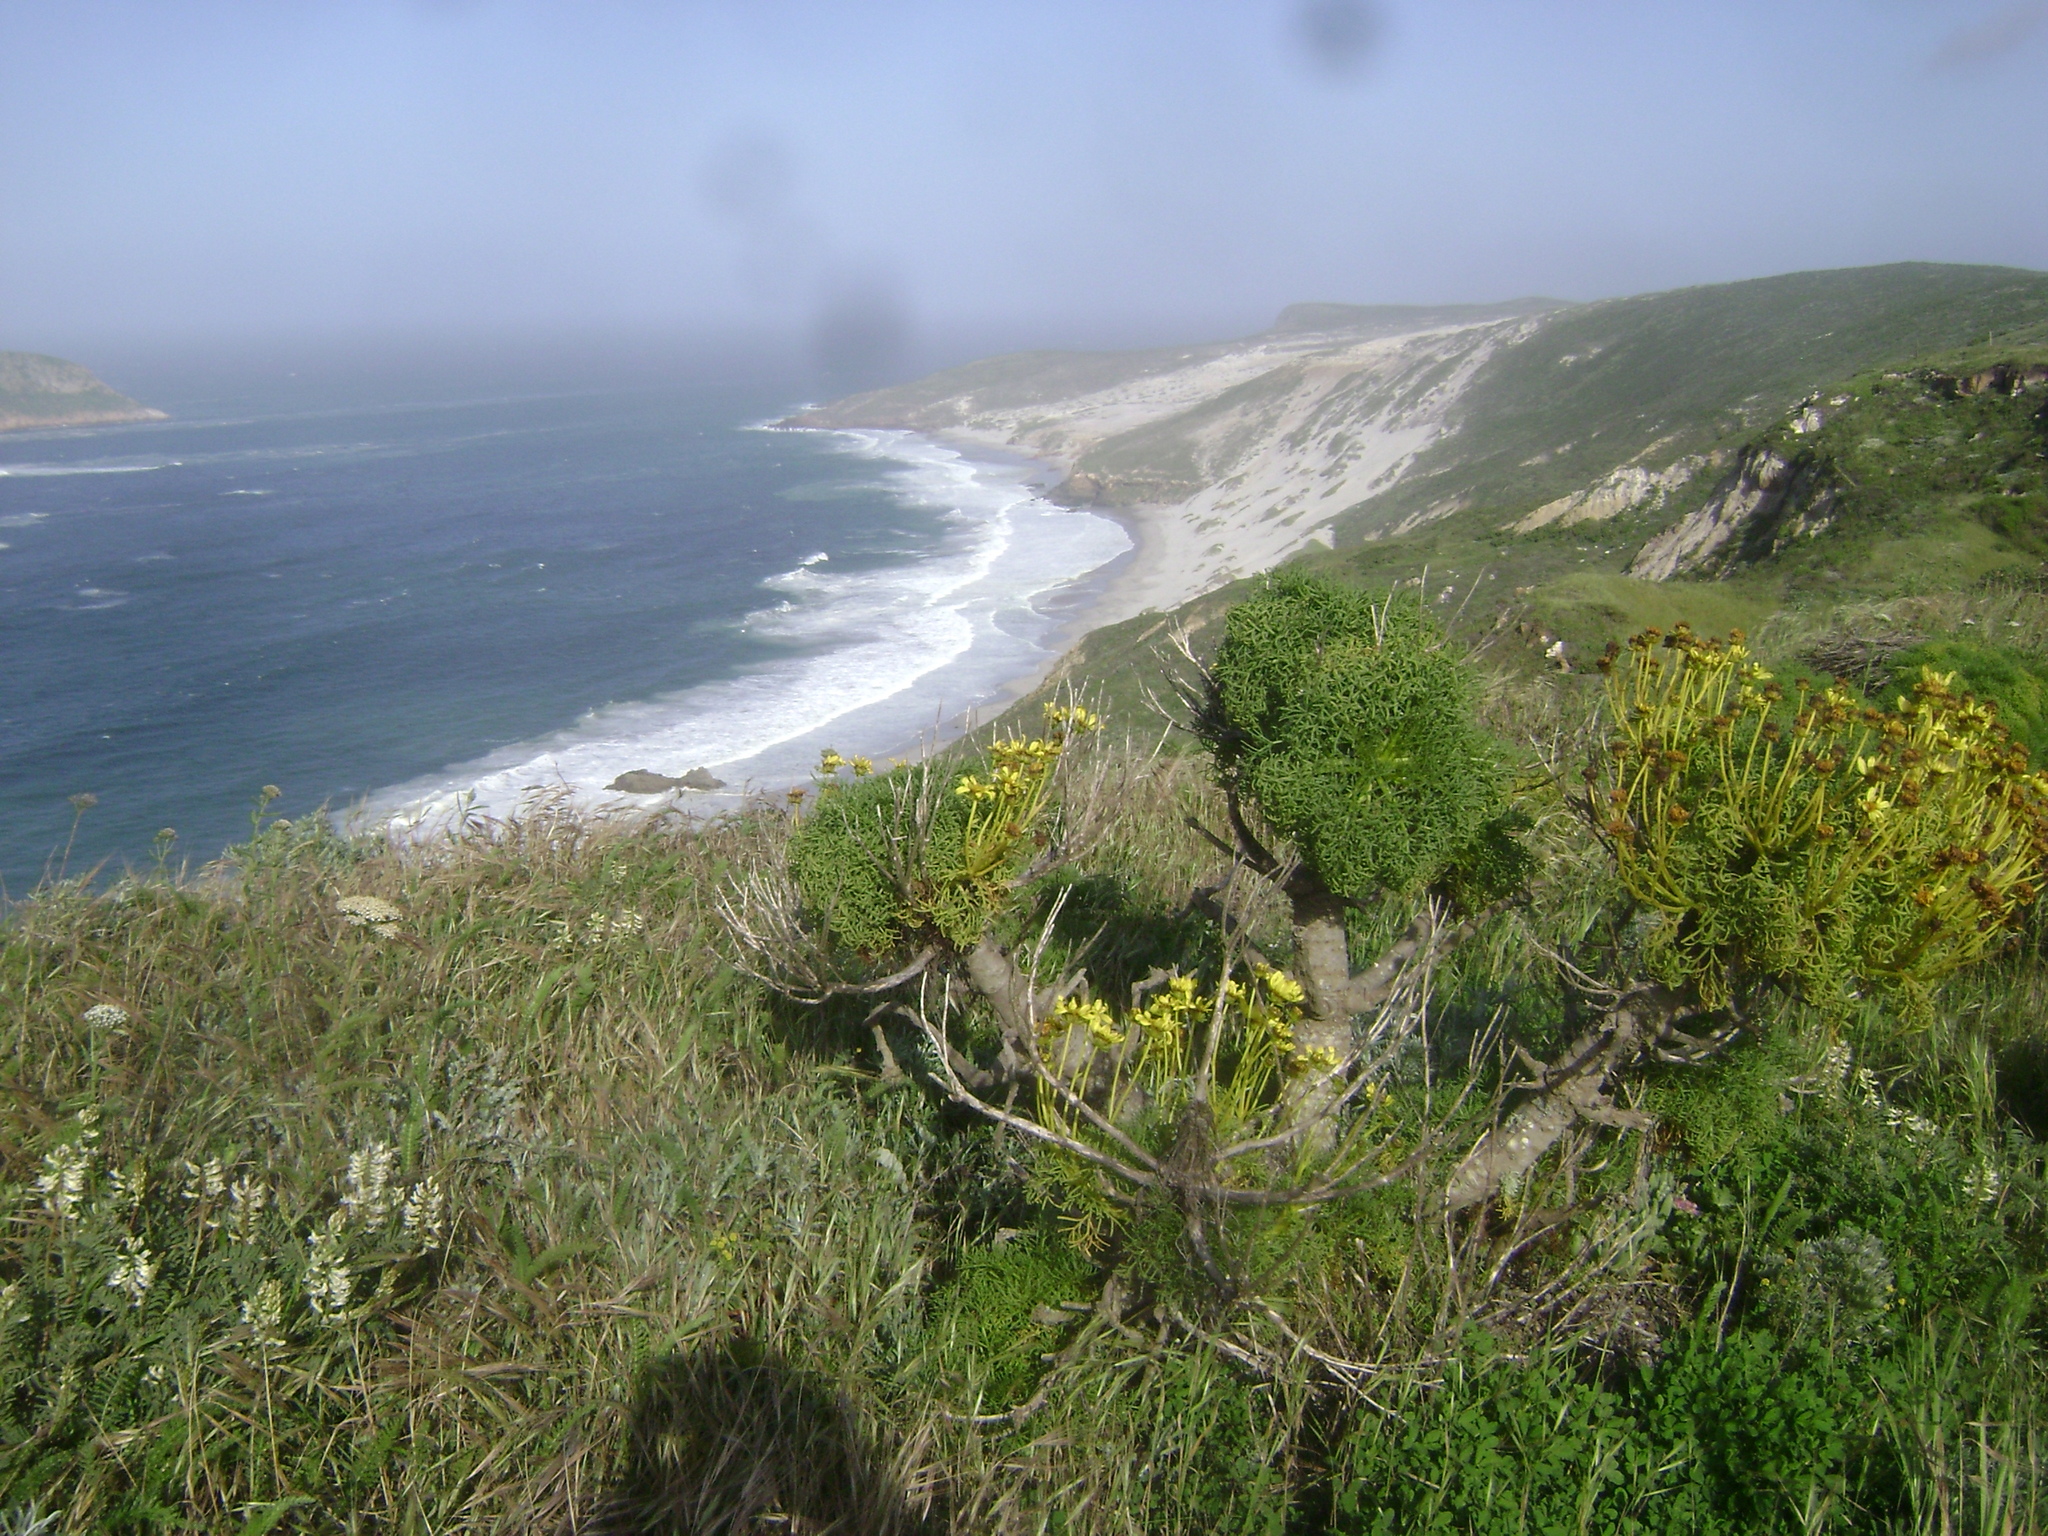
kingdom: Plantae
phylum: Tracheophyta
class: Magnoliopsida
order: Fabales
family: Fabaceae
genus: Astragalus
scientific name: Astragalus curtipes
